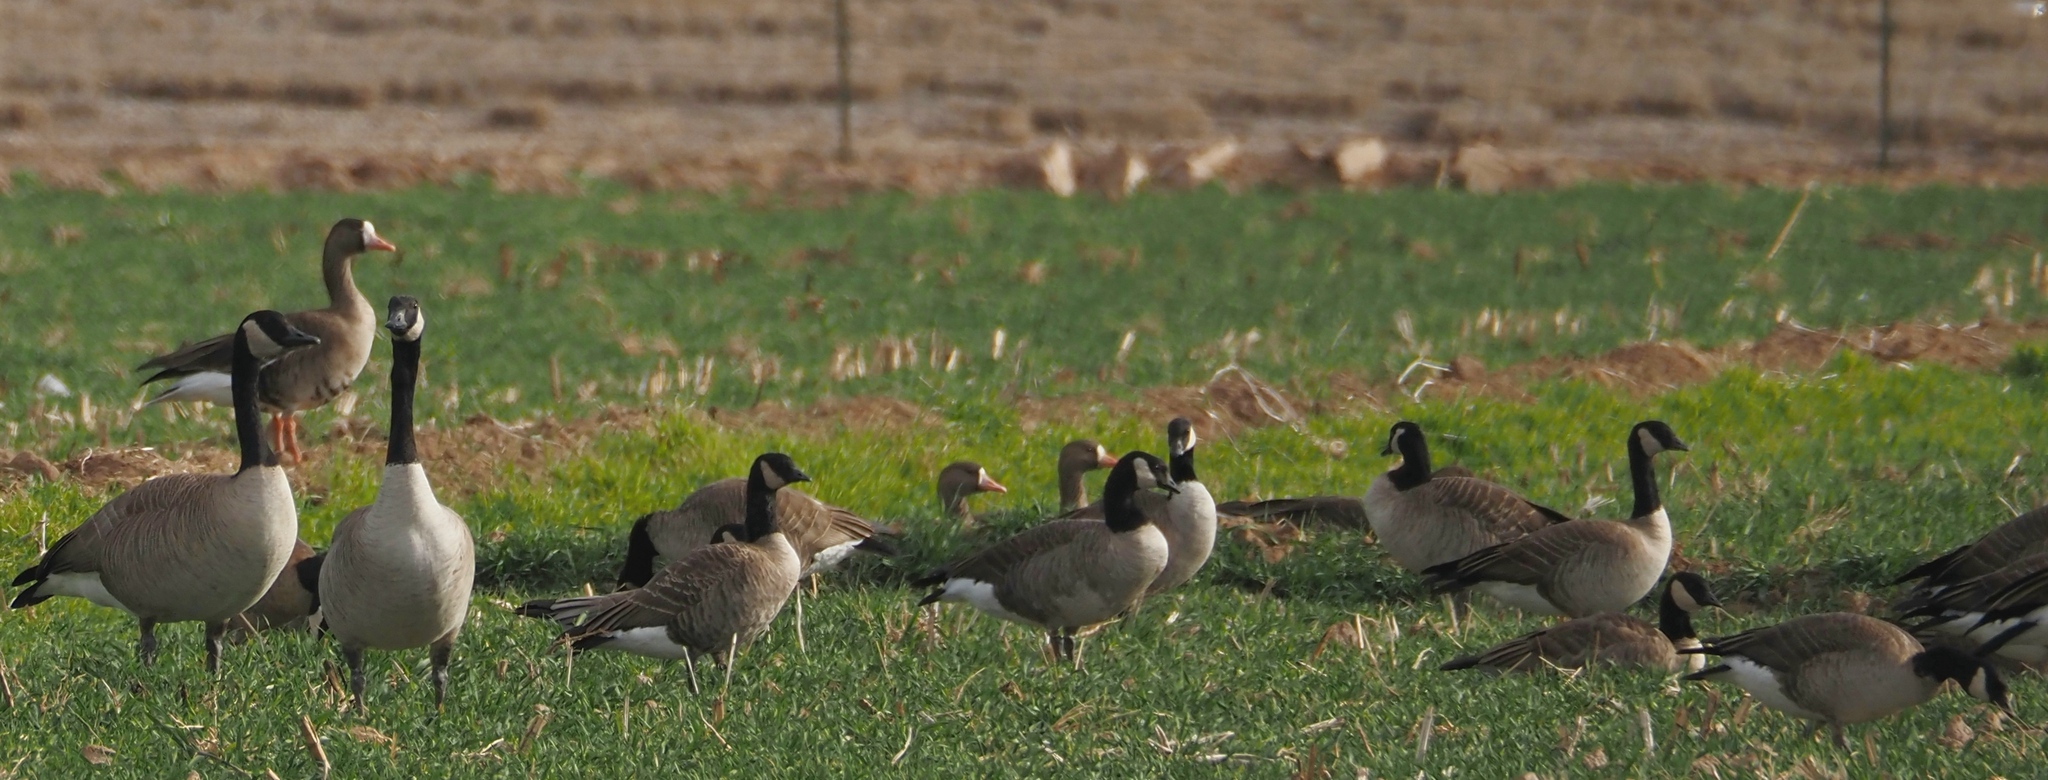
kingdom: Animalia
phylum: Chordata
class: Aves
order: Anseriformes
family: Anatidae
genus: Branta
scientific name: Branta hutchinsii
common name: Cackling goose
